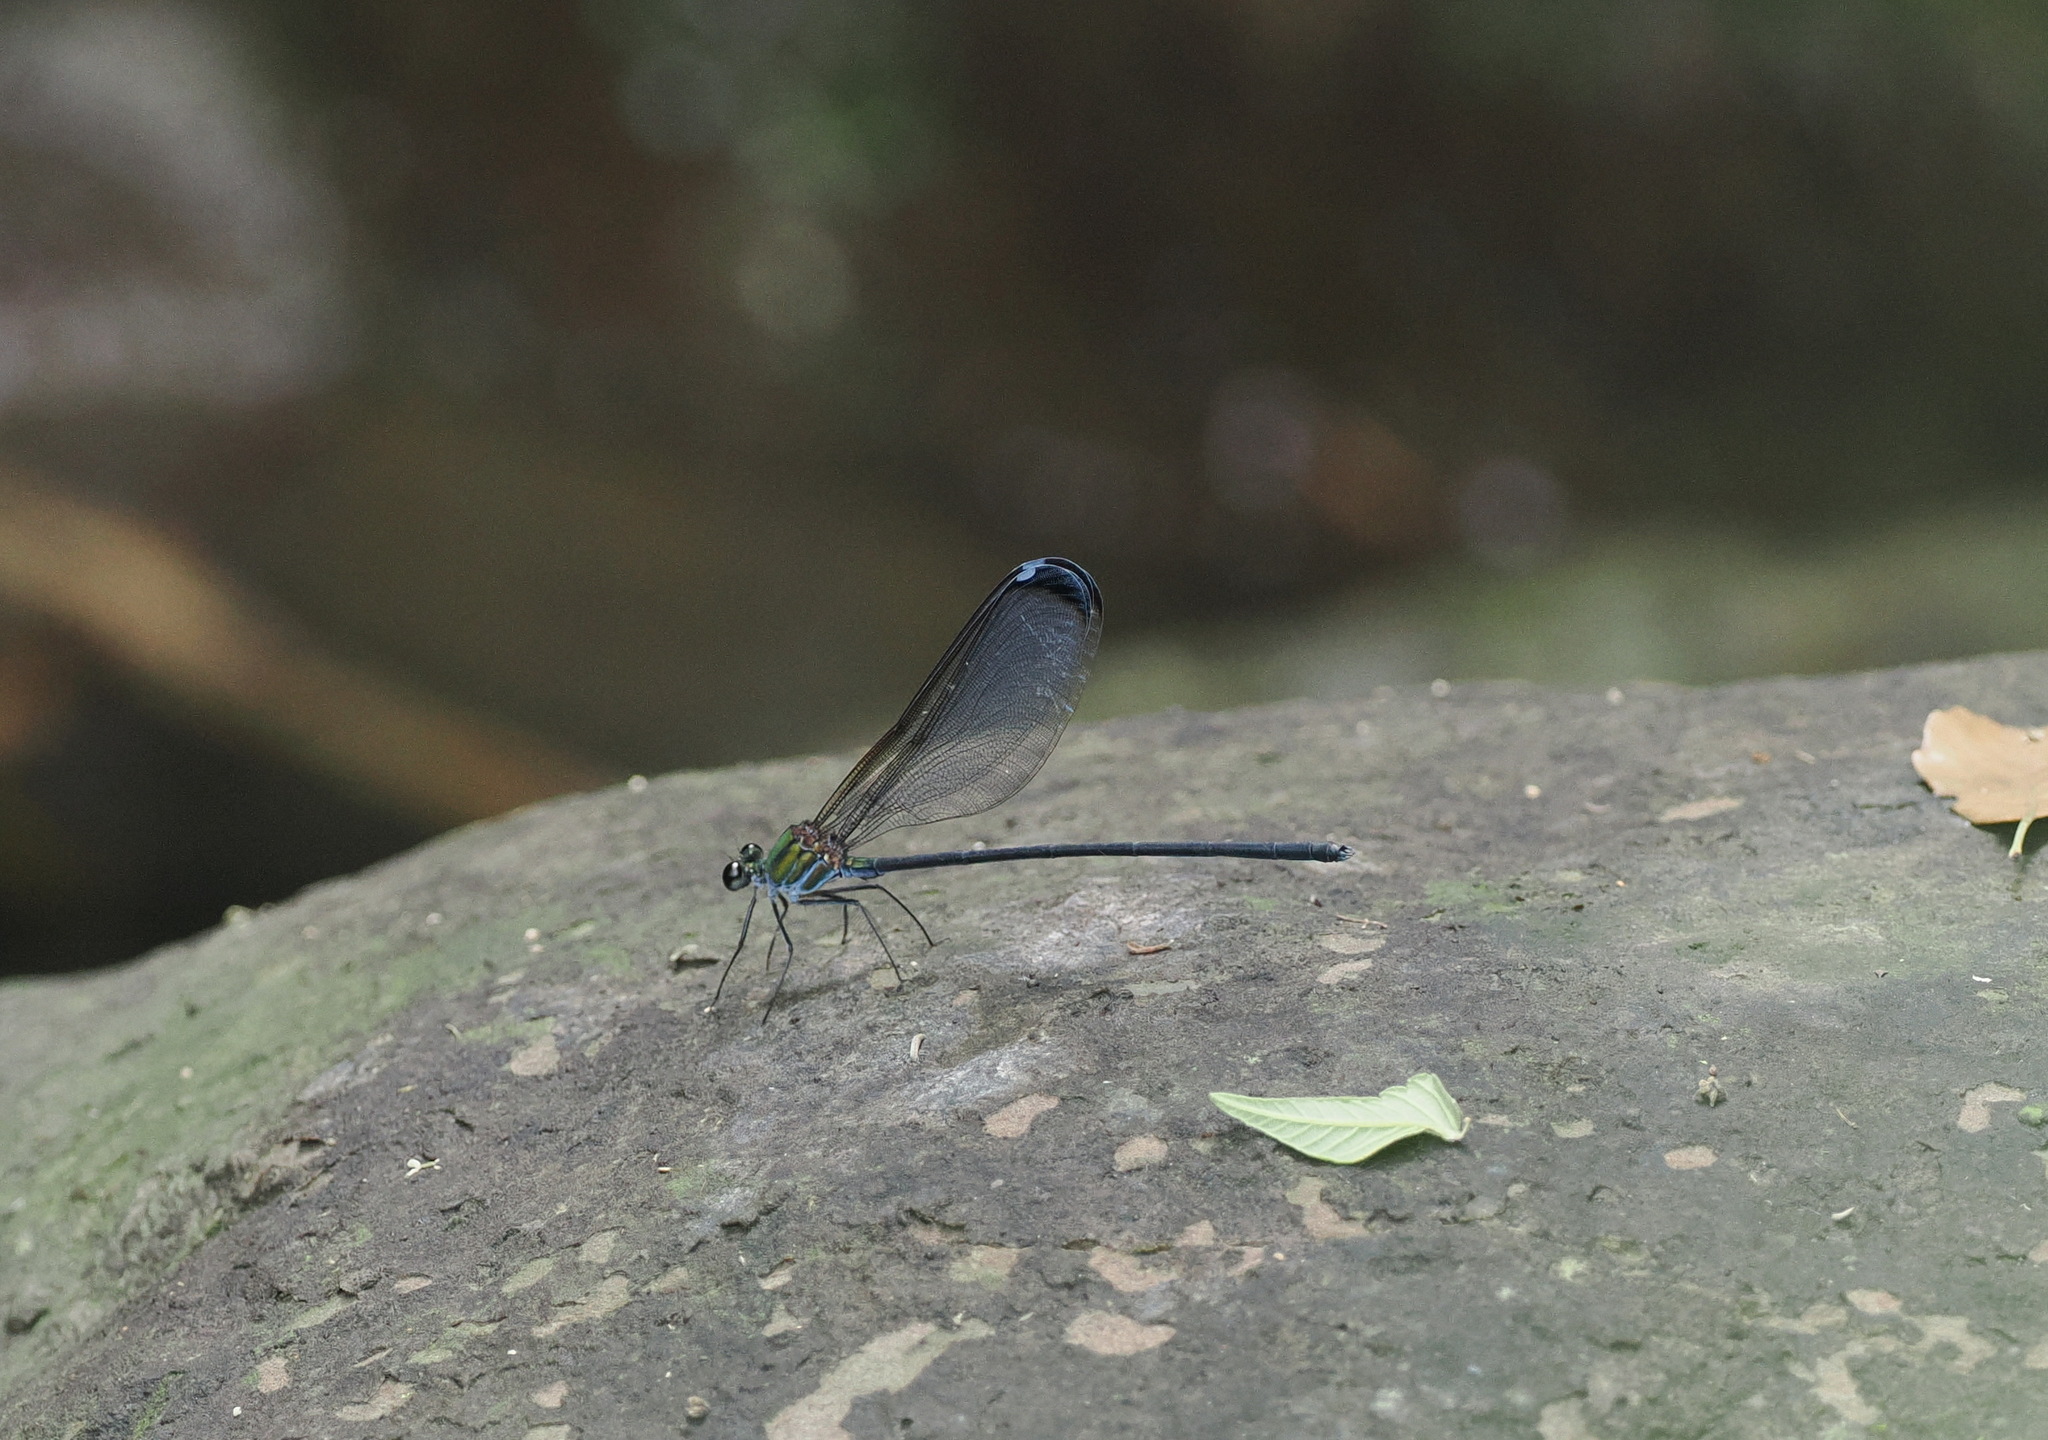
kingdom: Animalia
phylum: Arthropoda
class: Insecta
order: Odonata
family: Calopterygidae
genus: Psolodesmus
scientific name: Psolodesmus mandarinus
